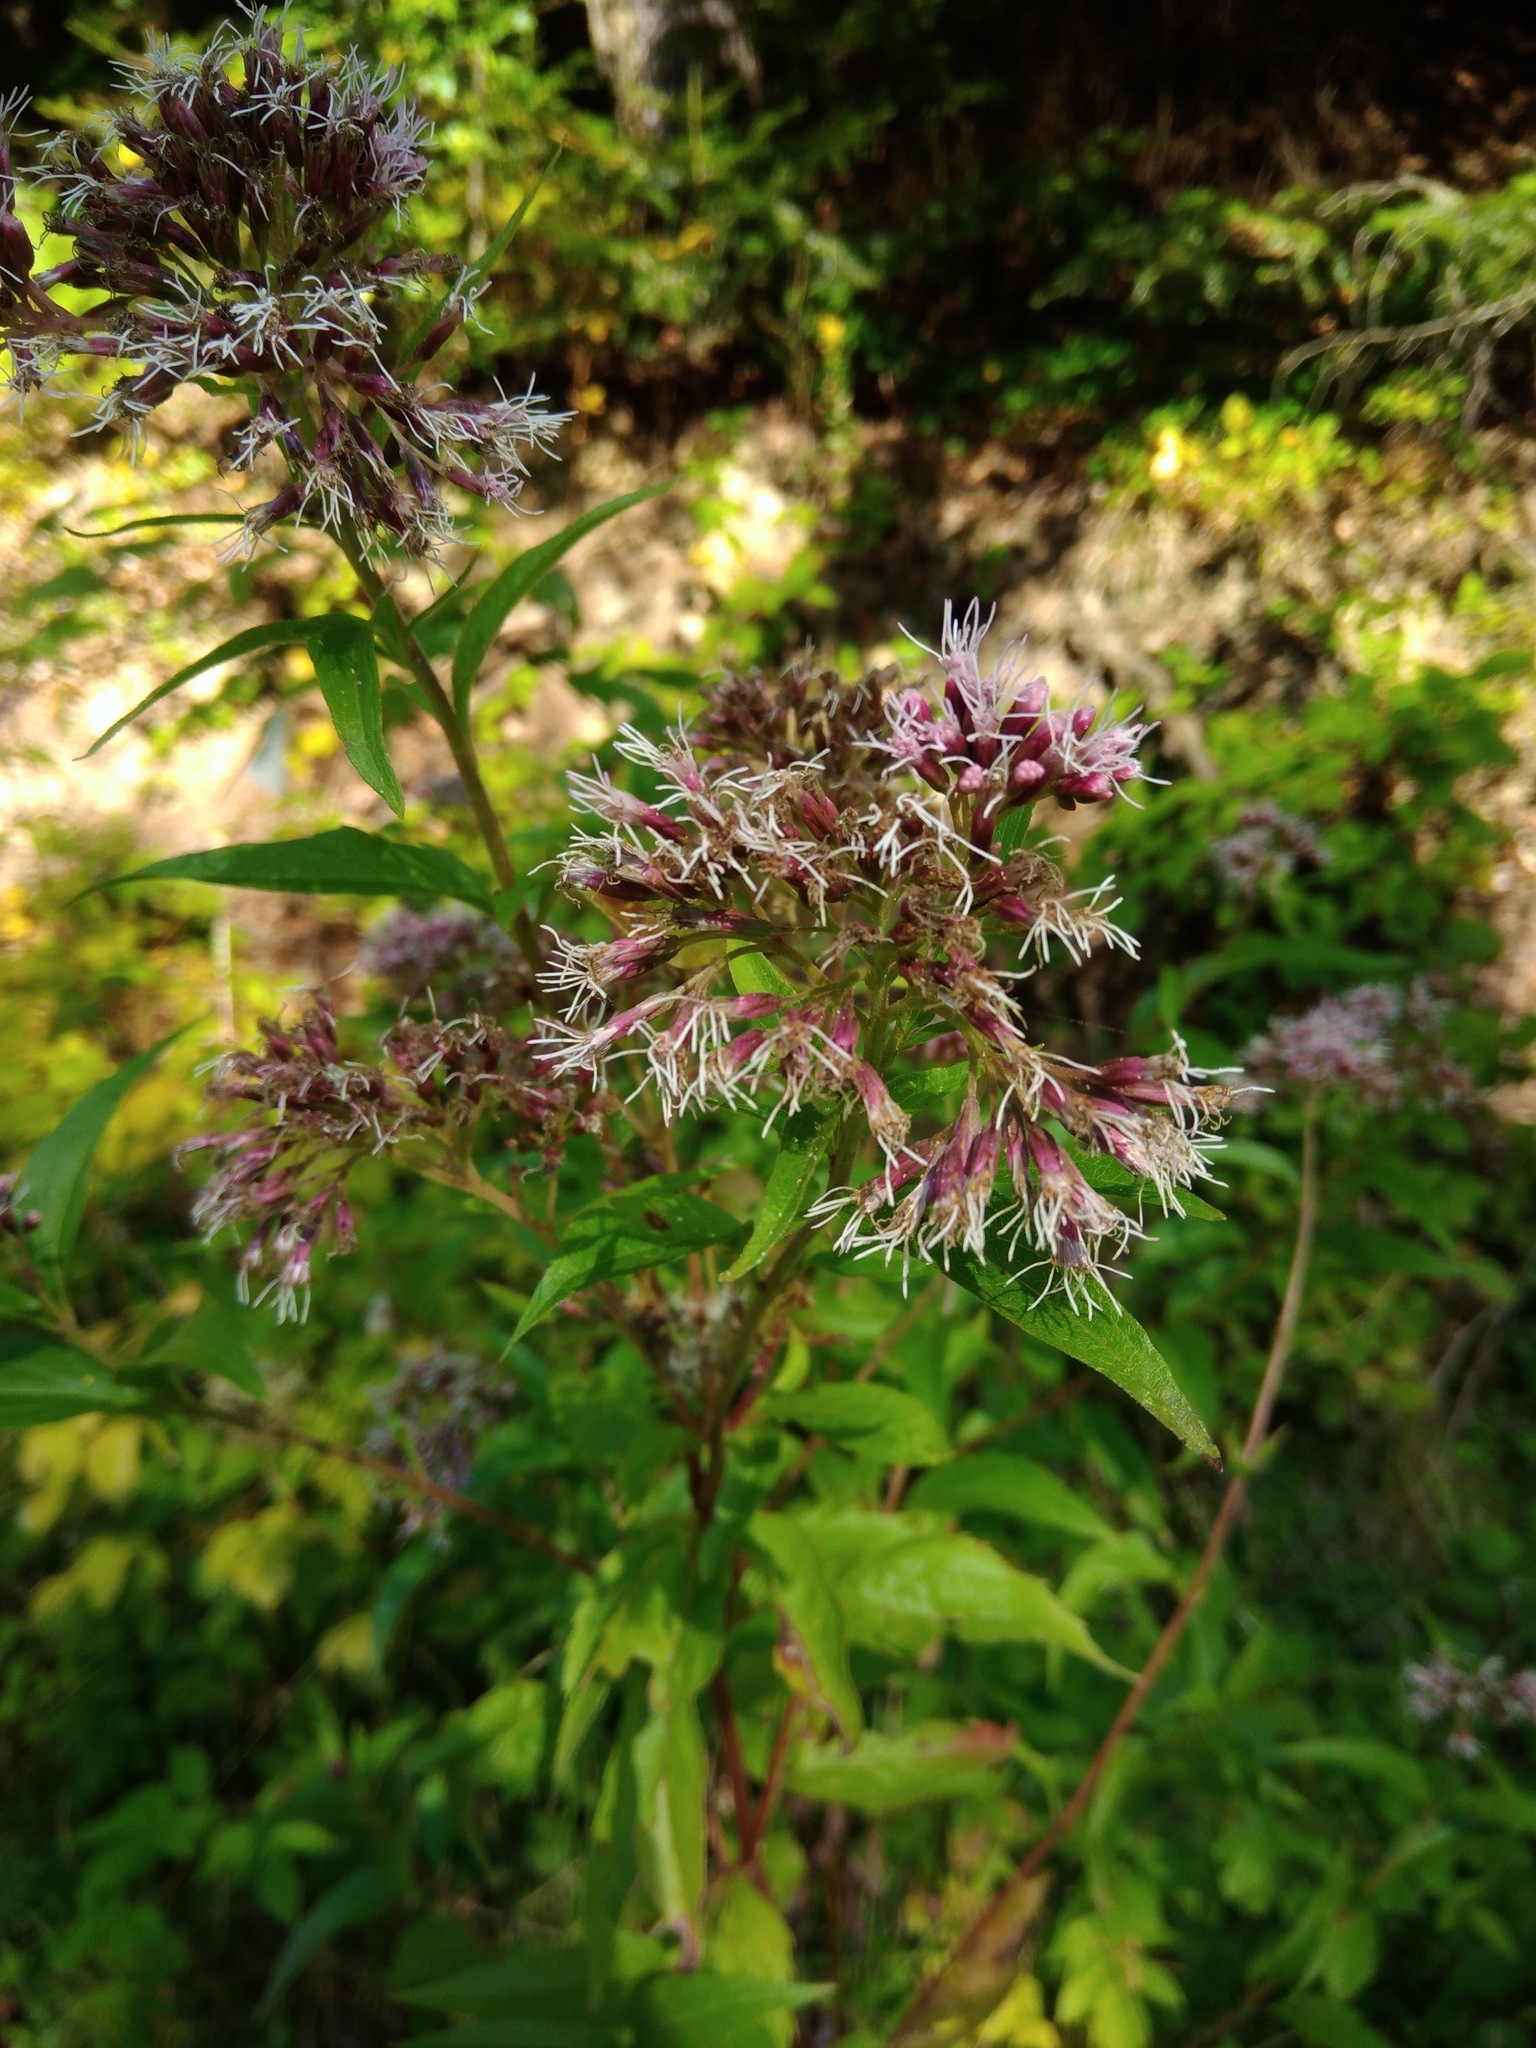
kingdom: Plantae
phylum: Tracheophyta
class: Magnoliopsida
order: Asterales
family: Asteraceae
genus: Eupatorium
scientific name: Eupatorium cannabinum
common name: Hemp-agrimony
